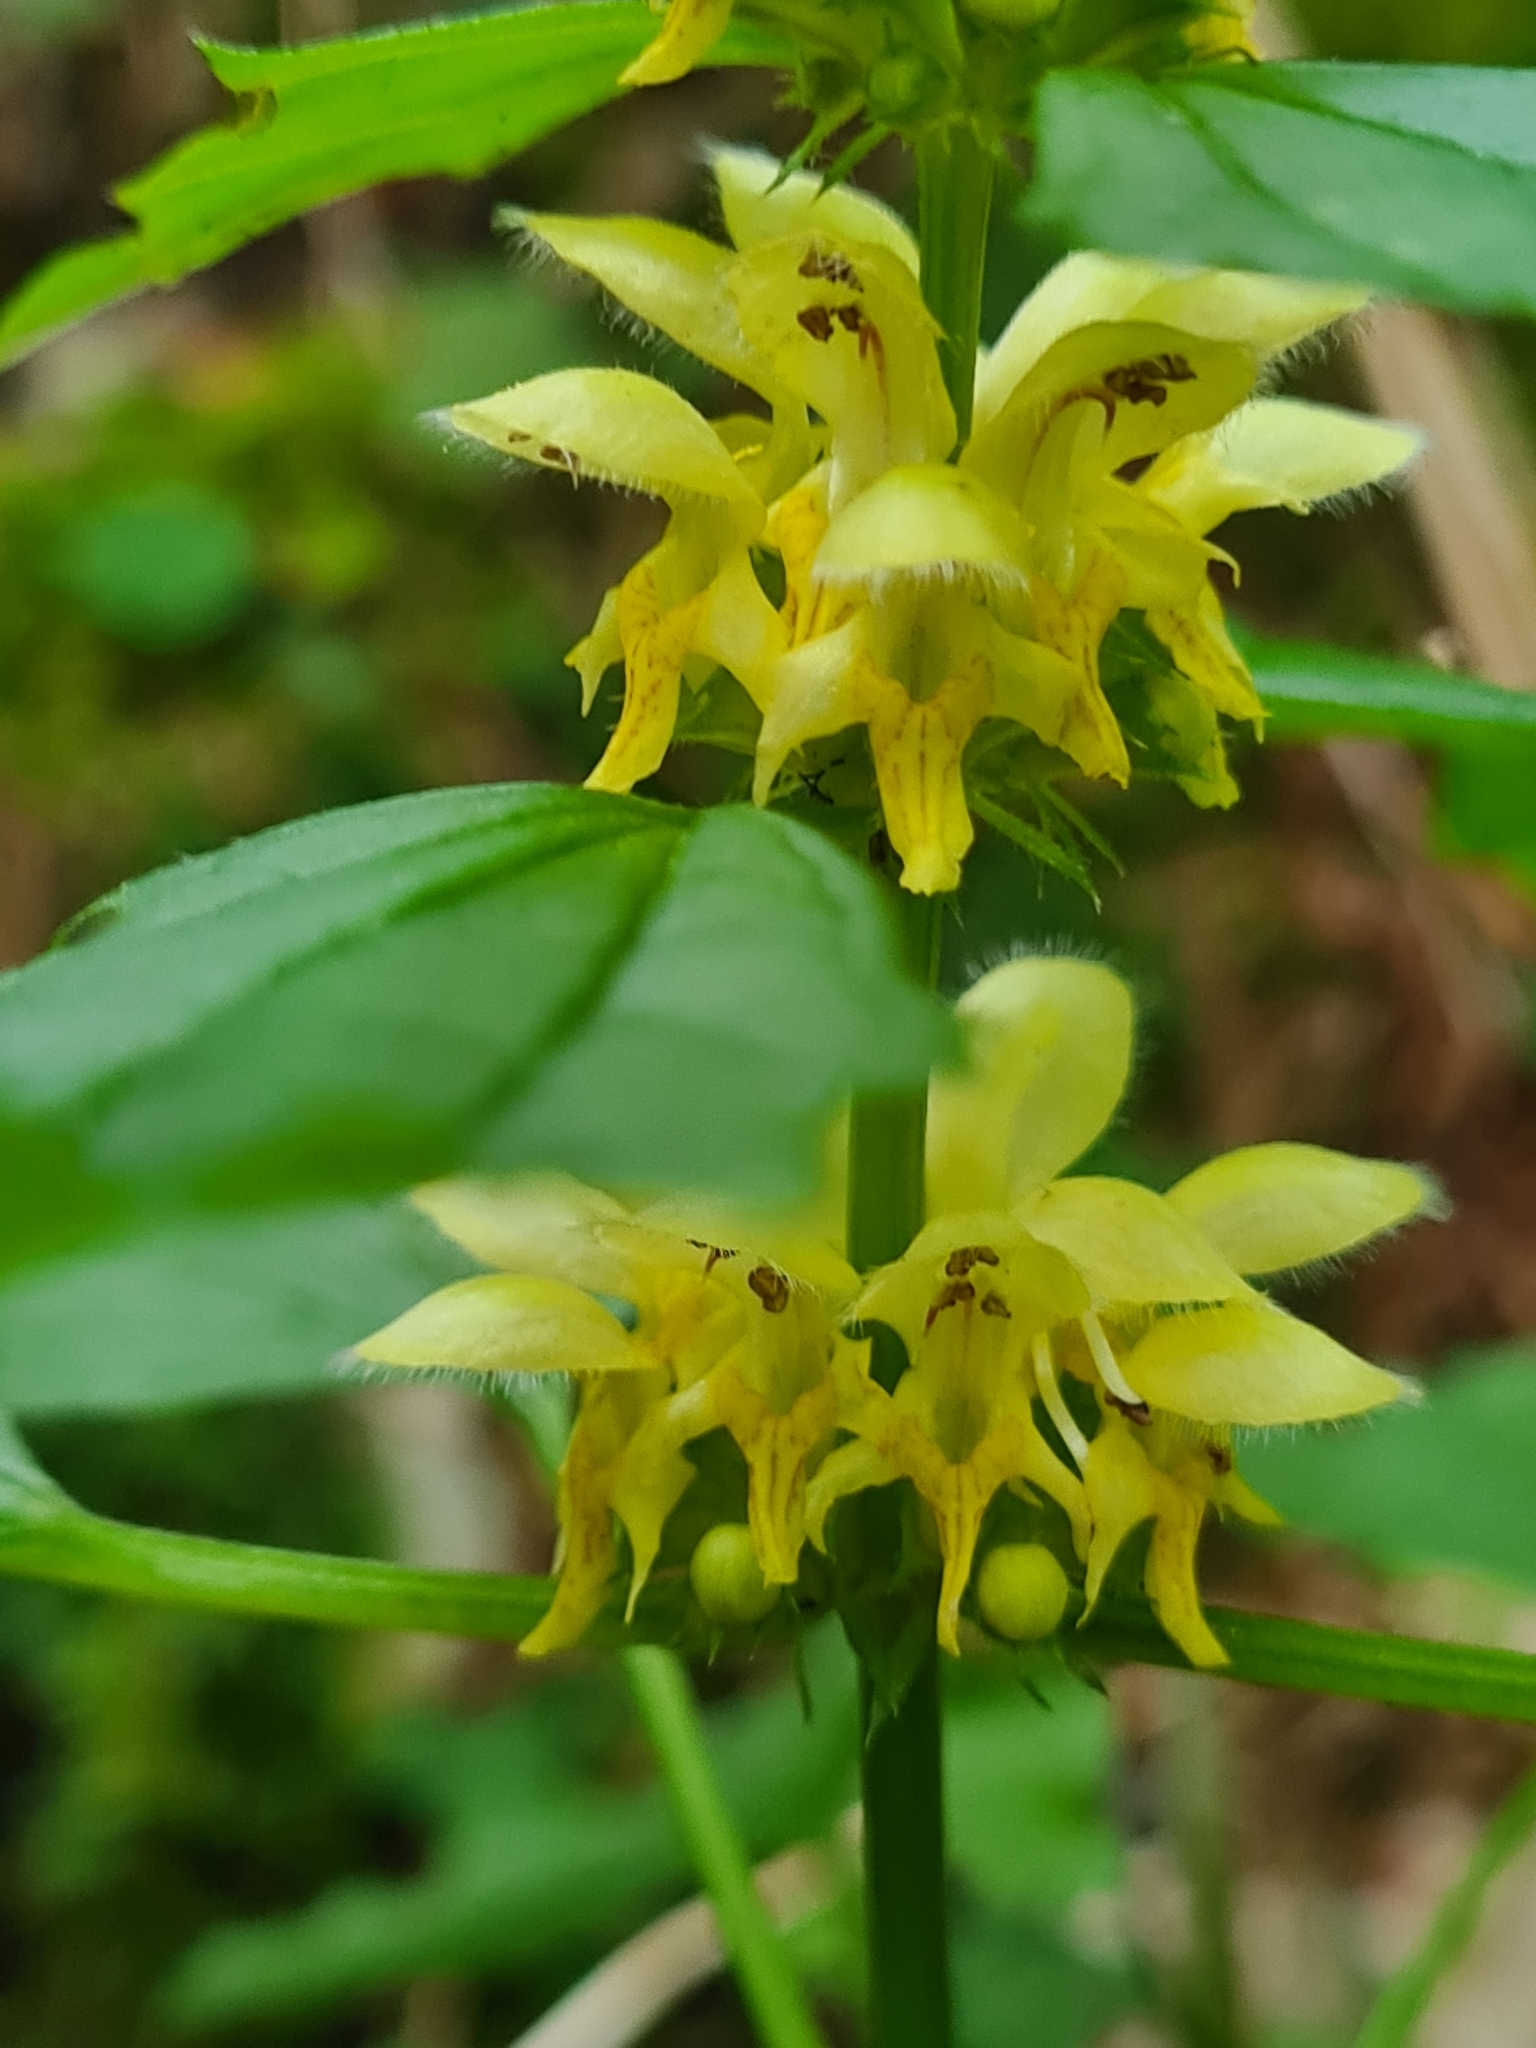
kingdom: Plantae
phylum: Tracheophyta
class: Magnoliopsida
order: Lamiales
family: Lamiaceae
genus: Lamium
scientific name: Lamium galeobdolon
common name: Yellow archangel
